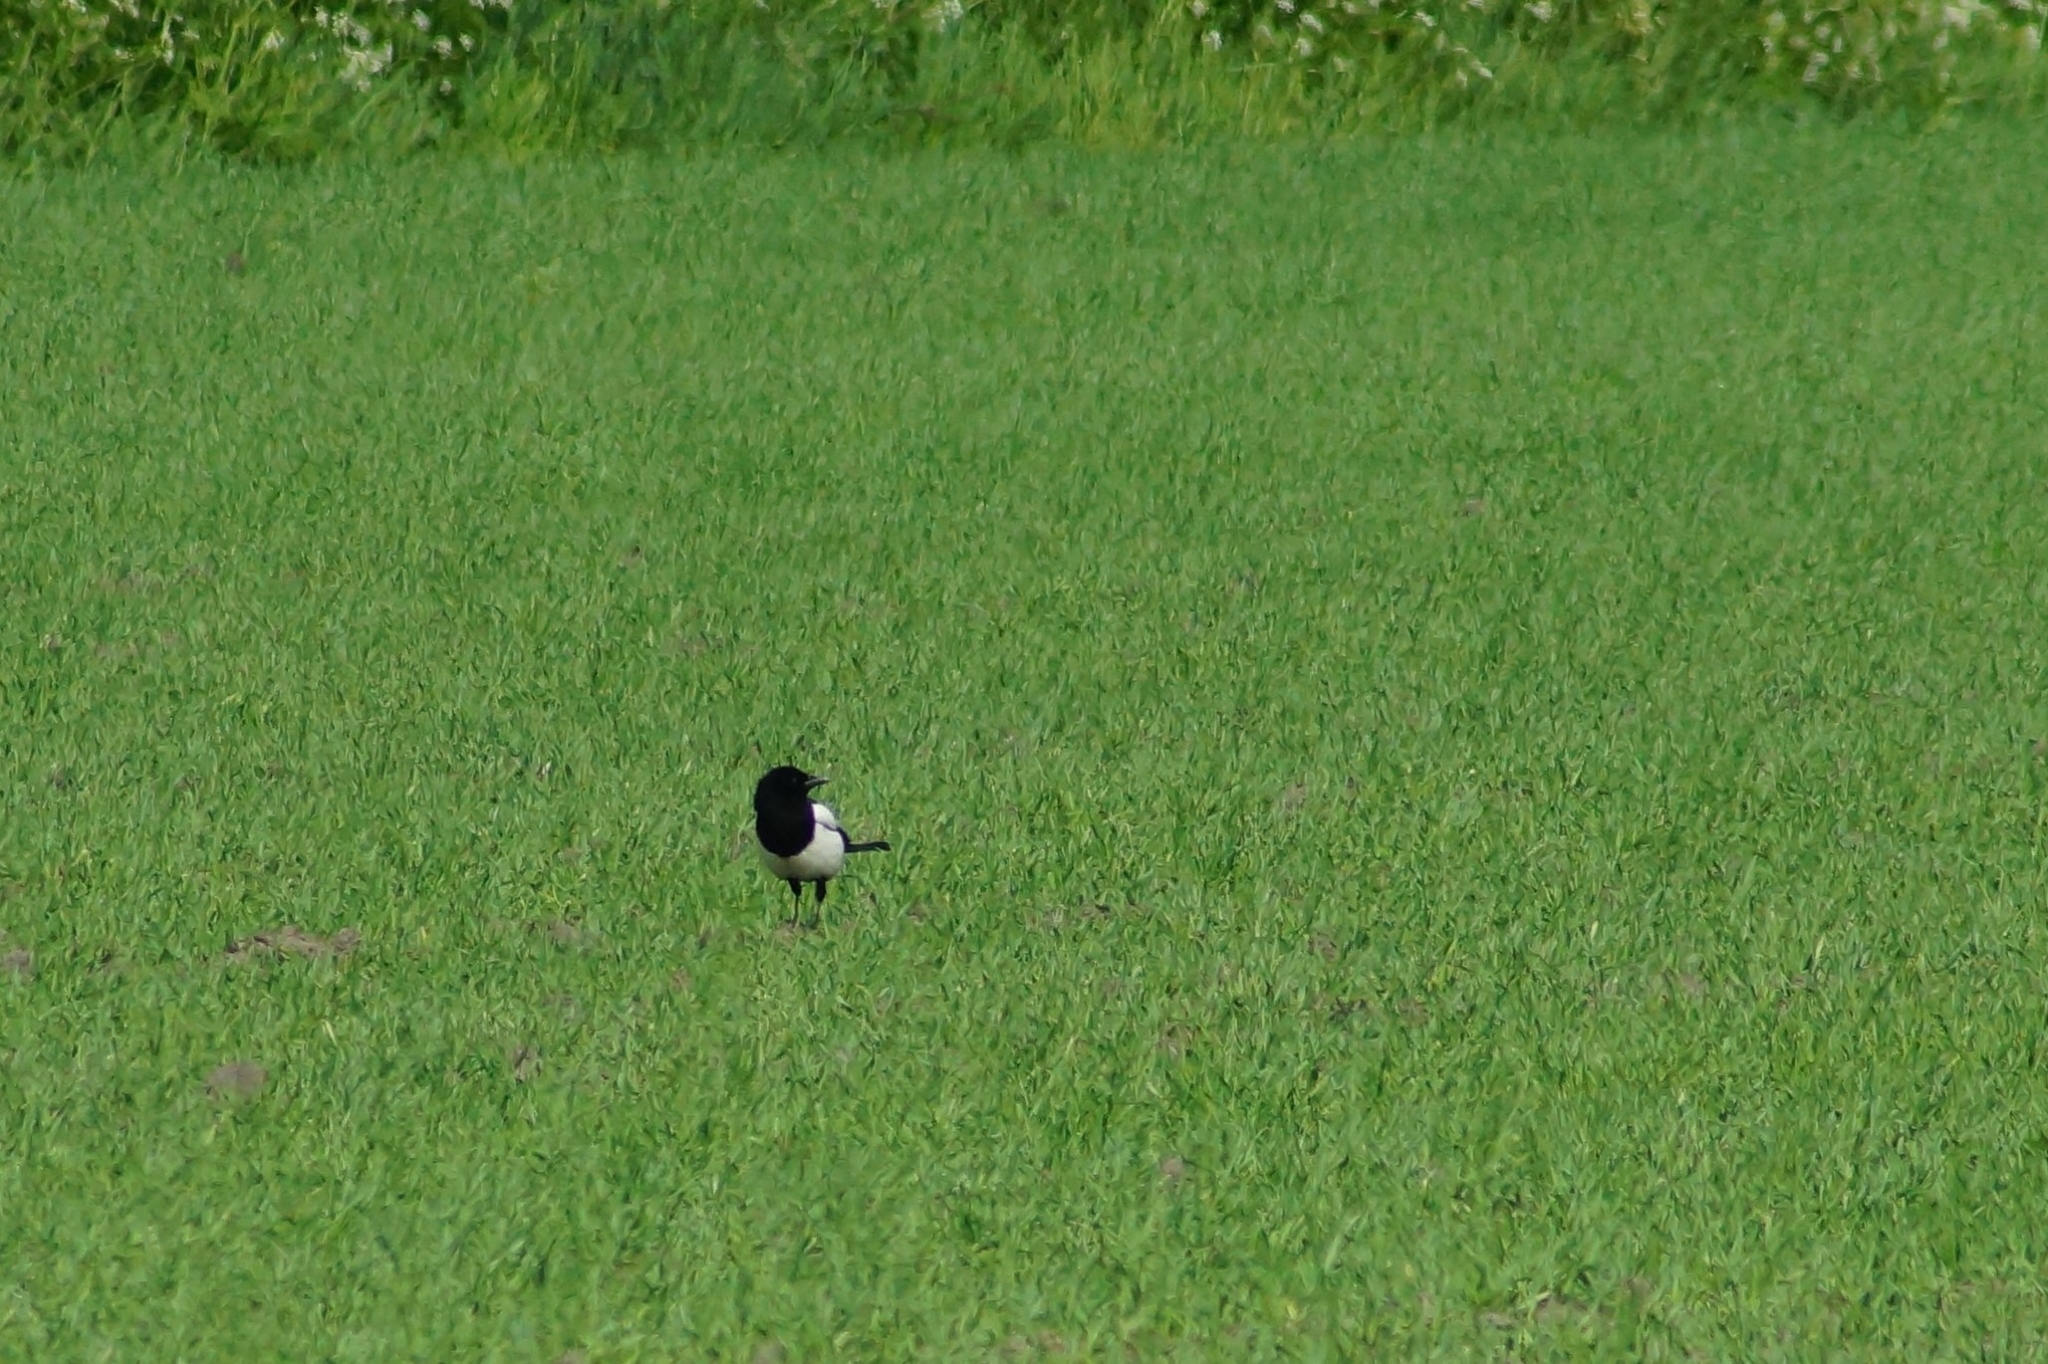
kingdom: Animalia
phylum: Chordata
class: Aves
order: Passeriformes
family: Corvidae
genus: Pica
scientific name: Pica pica
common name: Eurasian magpie
